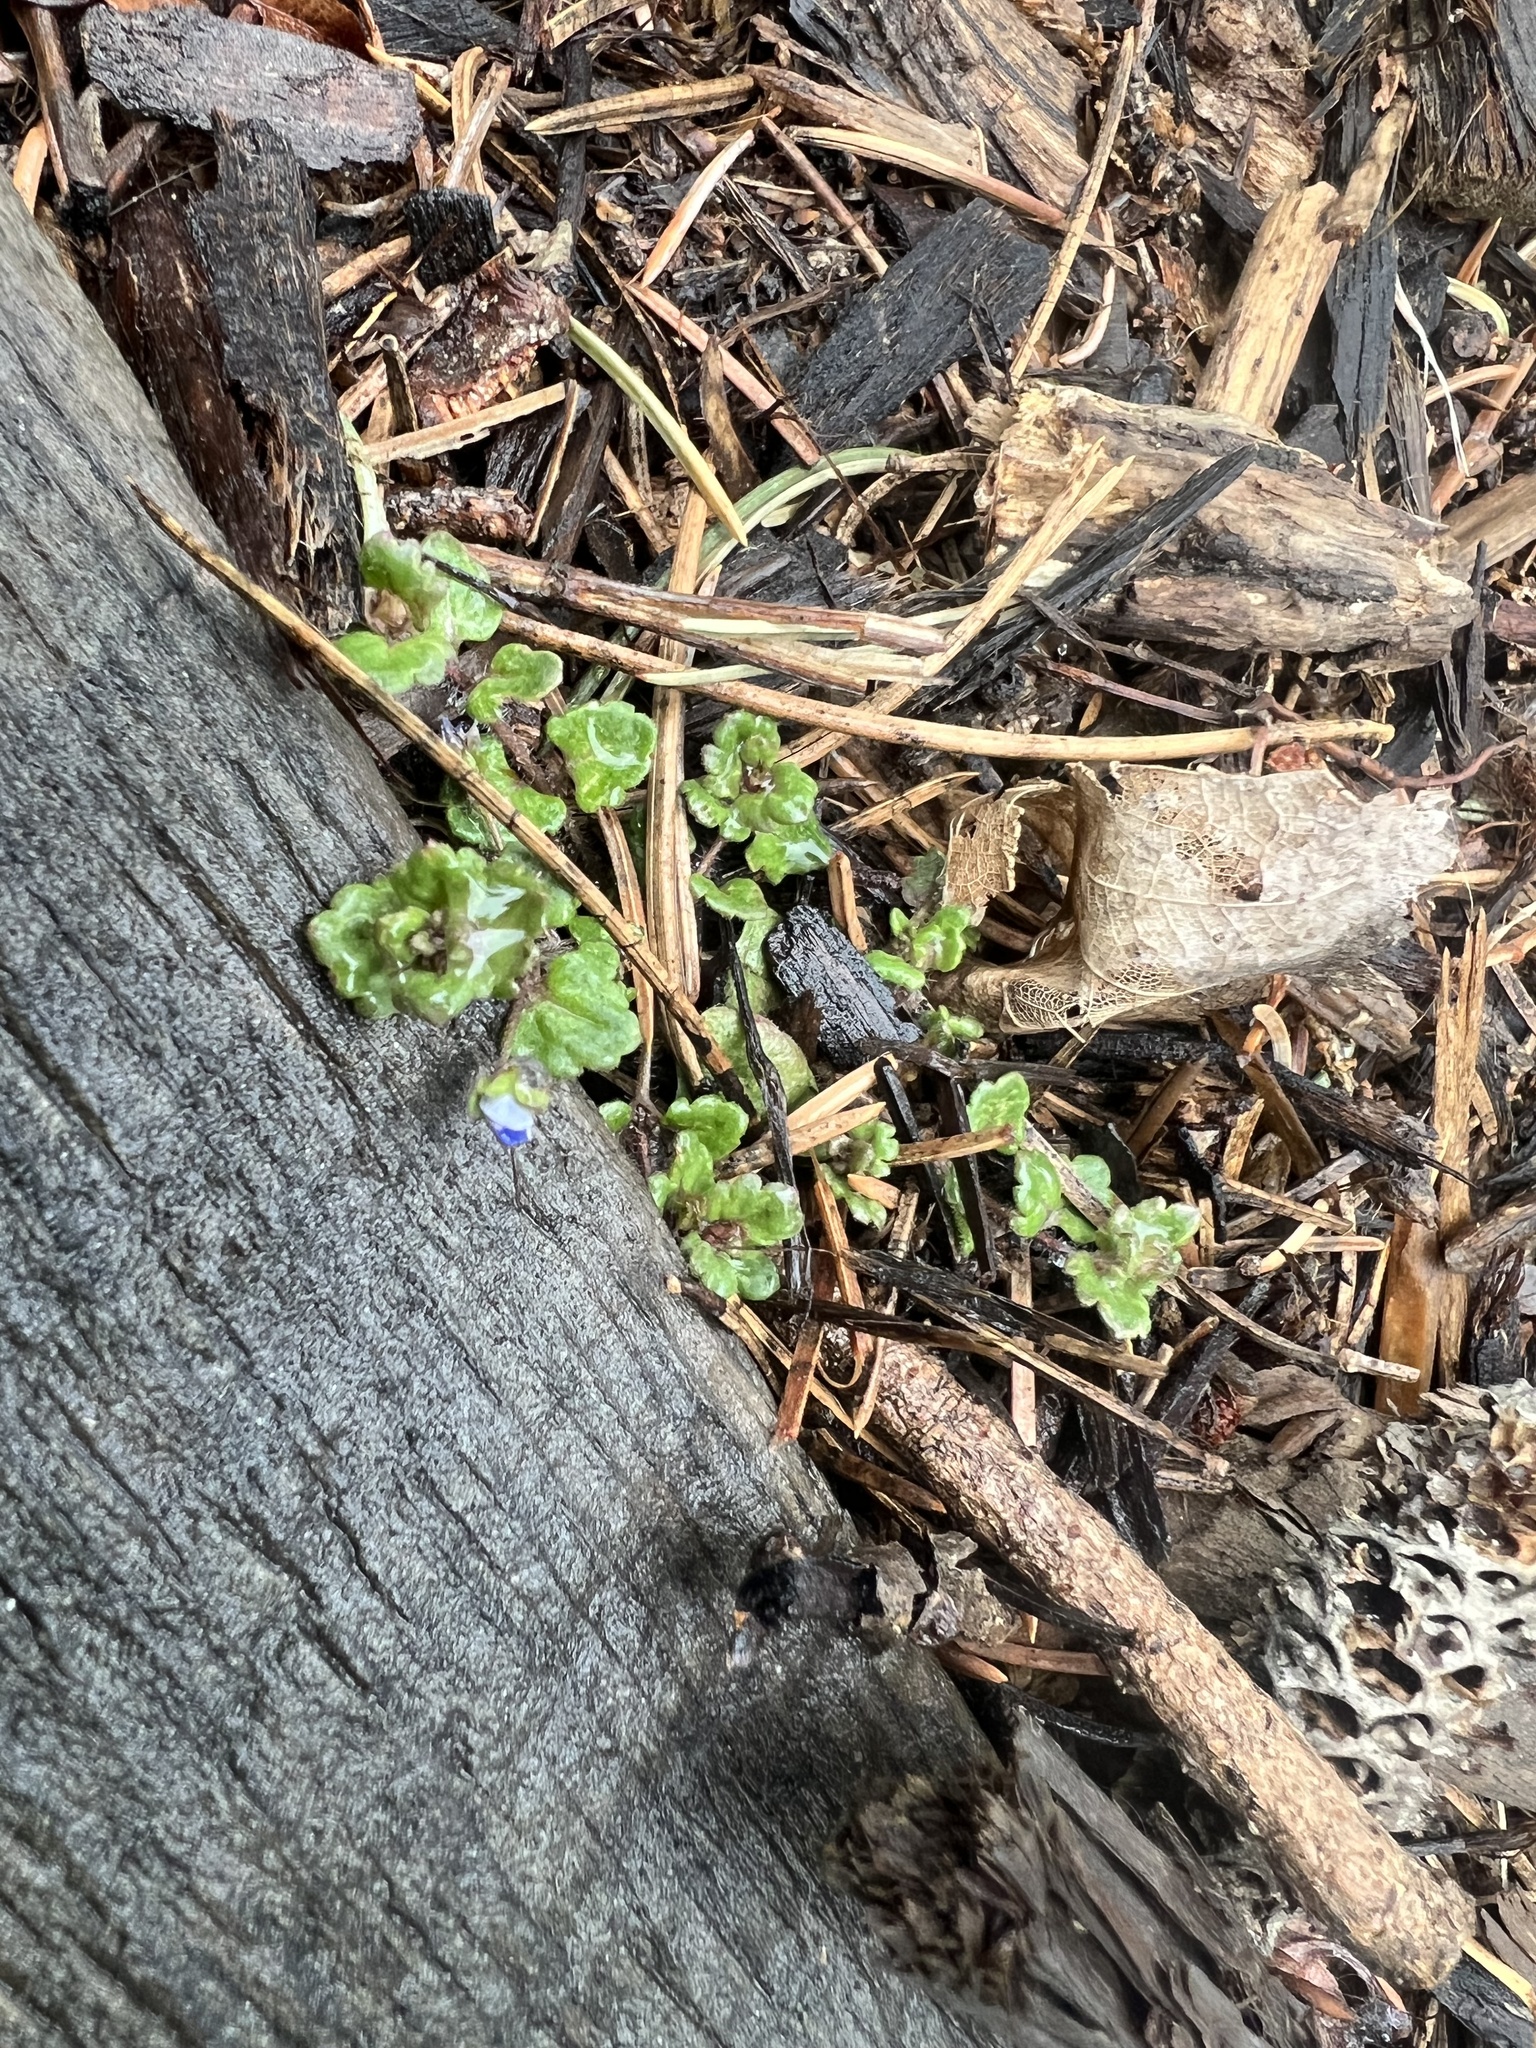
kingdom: Plantae
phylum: Tracheophyta
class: Magnoliopsida
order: Lamiales
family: Plantaginaceae
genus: Veronica
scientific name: Veronica polita
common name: Grey field-speedwell
